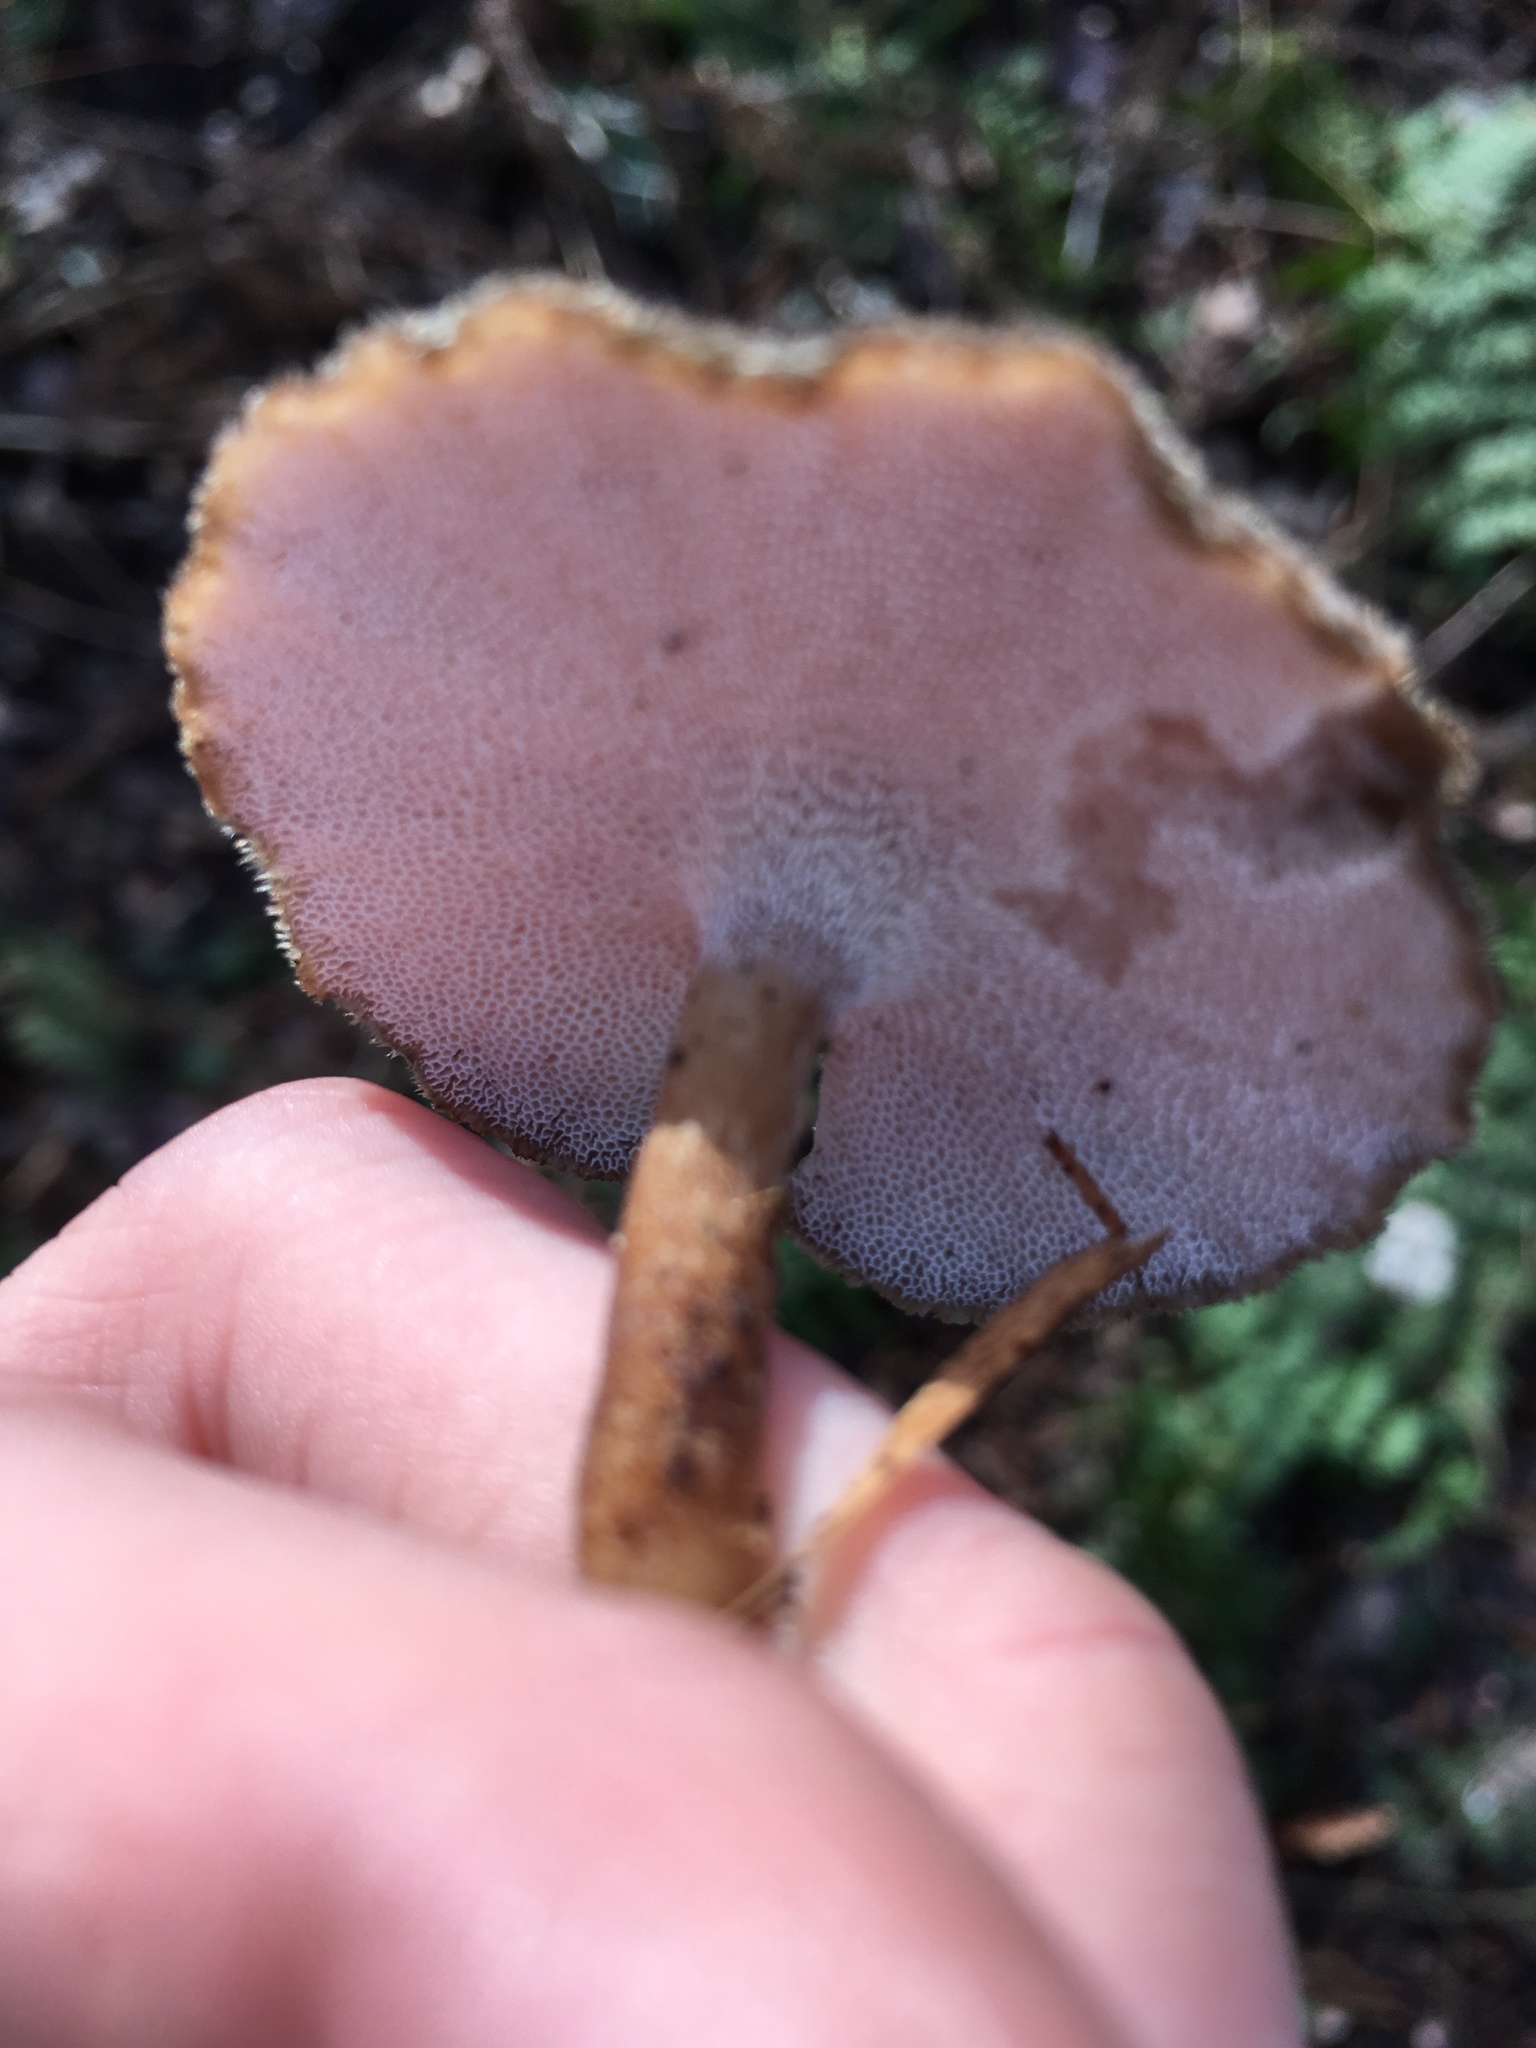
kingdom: Fungi
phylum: Basidiomycota
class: Agaricomycetes
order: Polyporales
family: Polyporaceae
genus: Lentinus
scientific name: Lentinus brumalis
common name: Winter polypore
